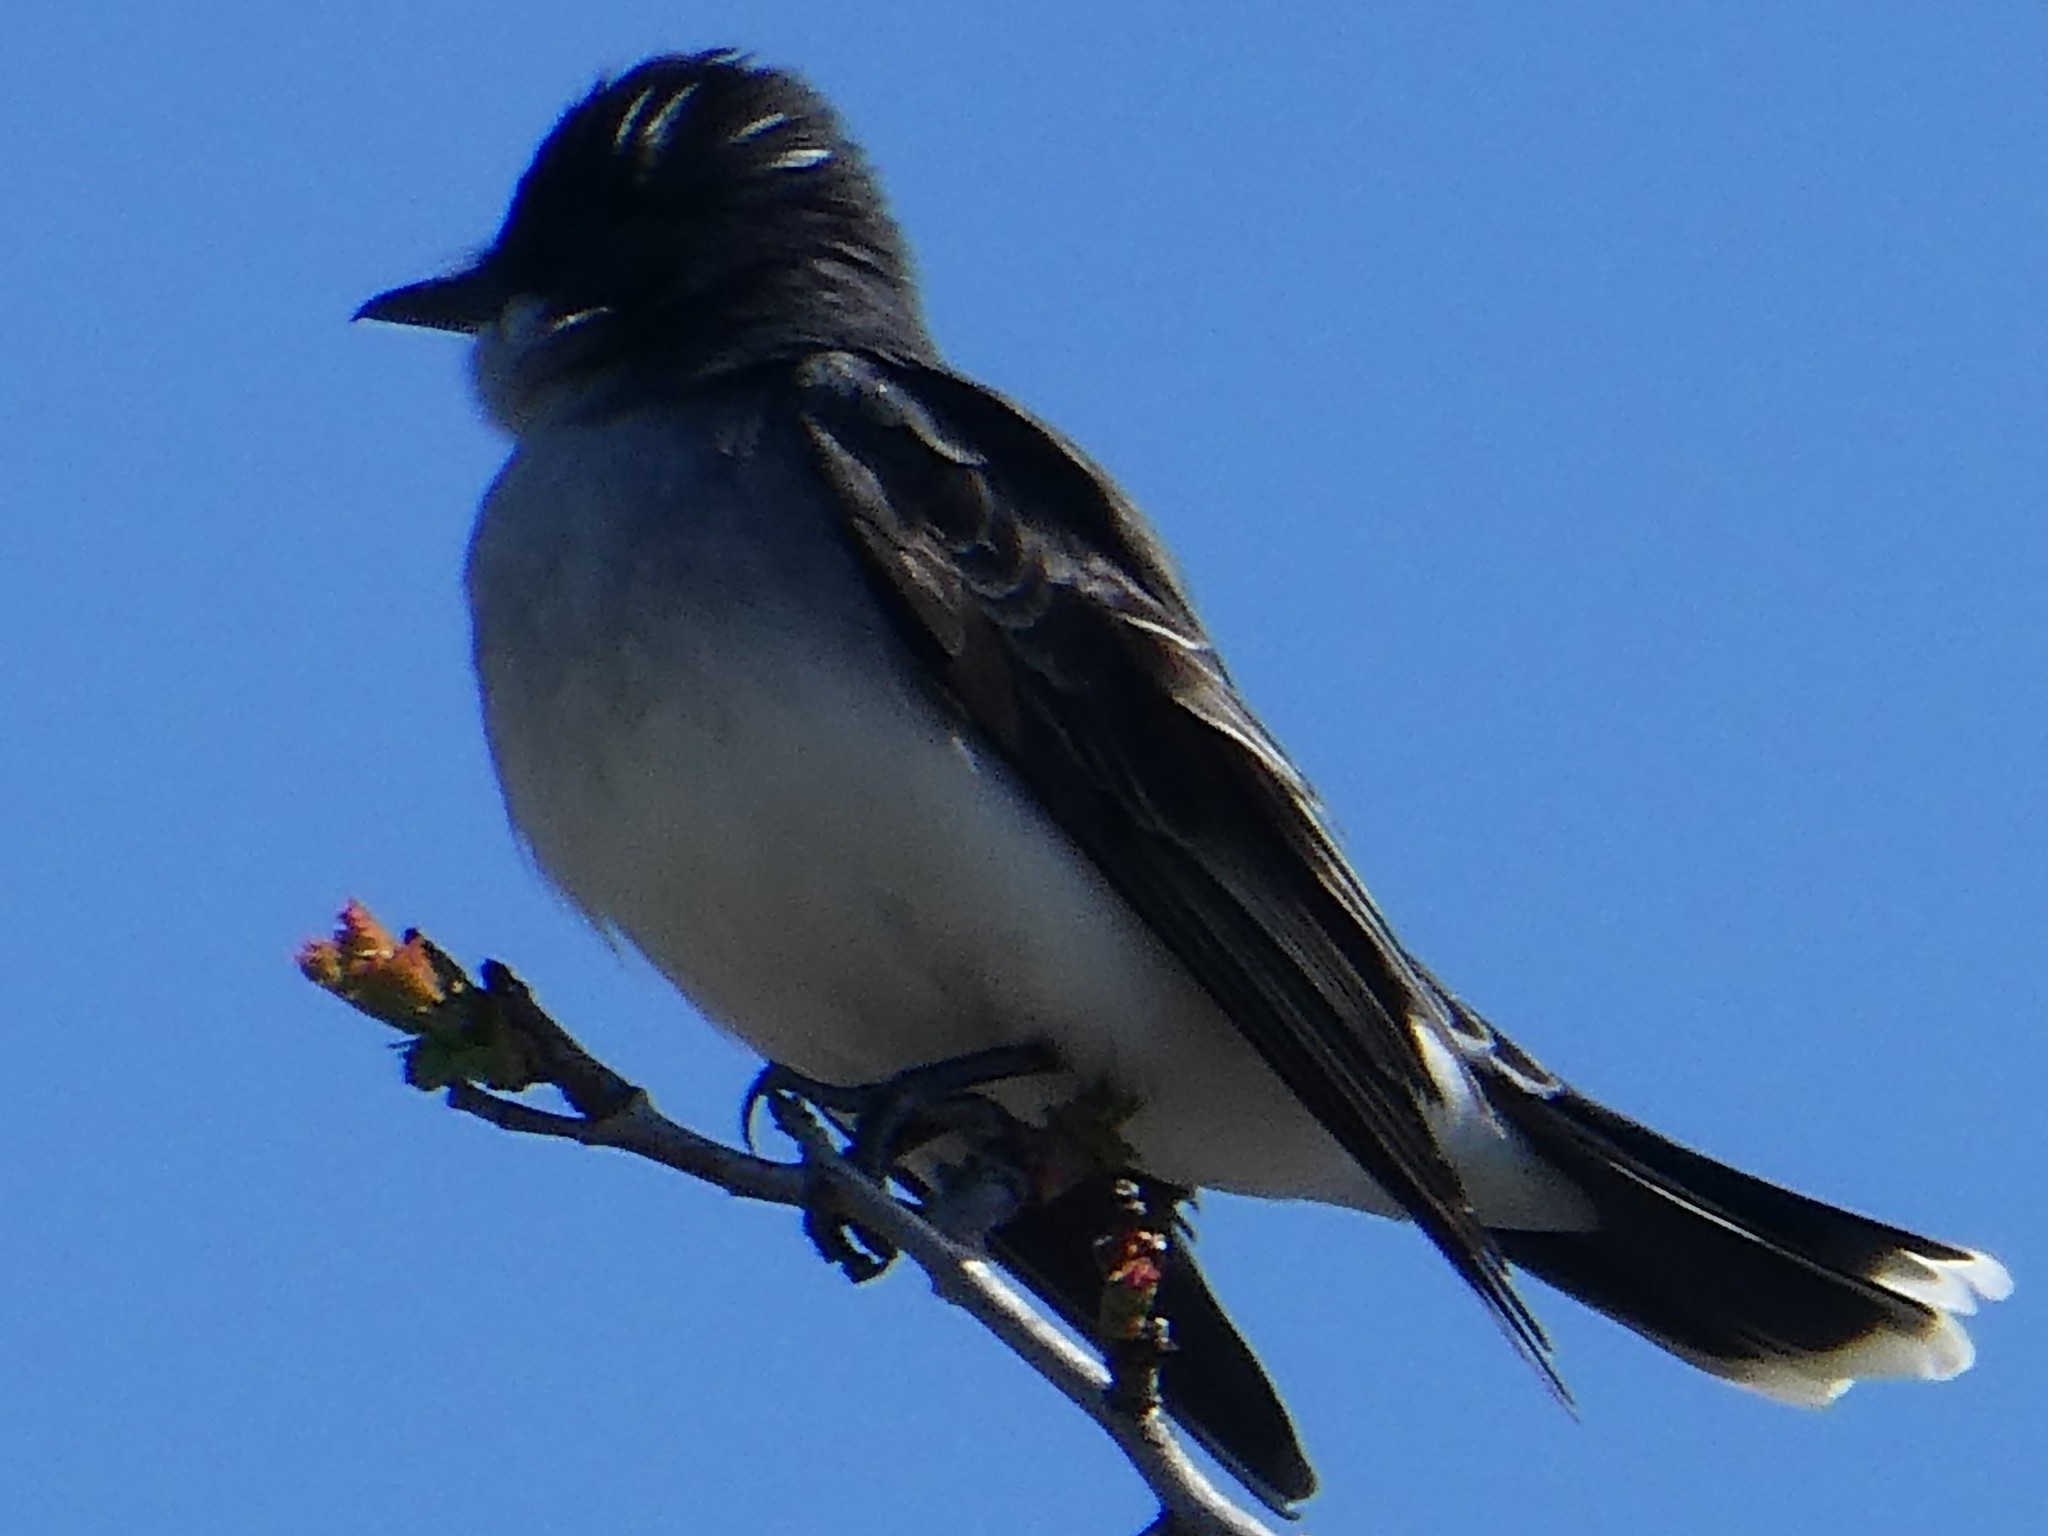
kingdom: Animalia
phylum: Chordata
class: Aves
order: Passeriformes
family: Tyrannidae
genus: Tyrannus
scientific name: Tyrannus tyrannus
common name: Eastern kingbird
